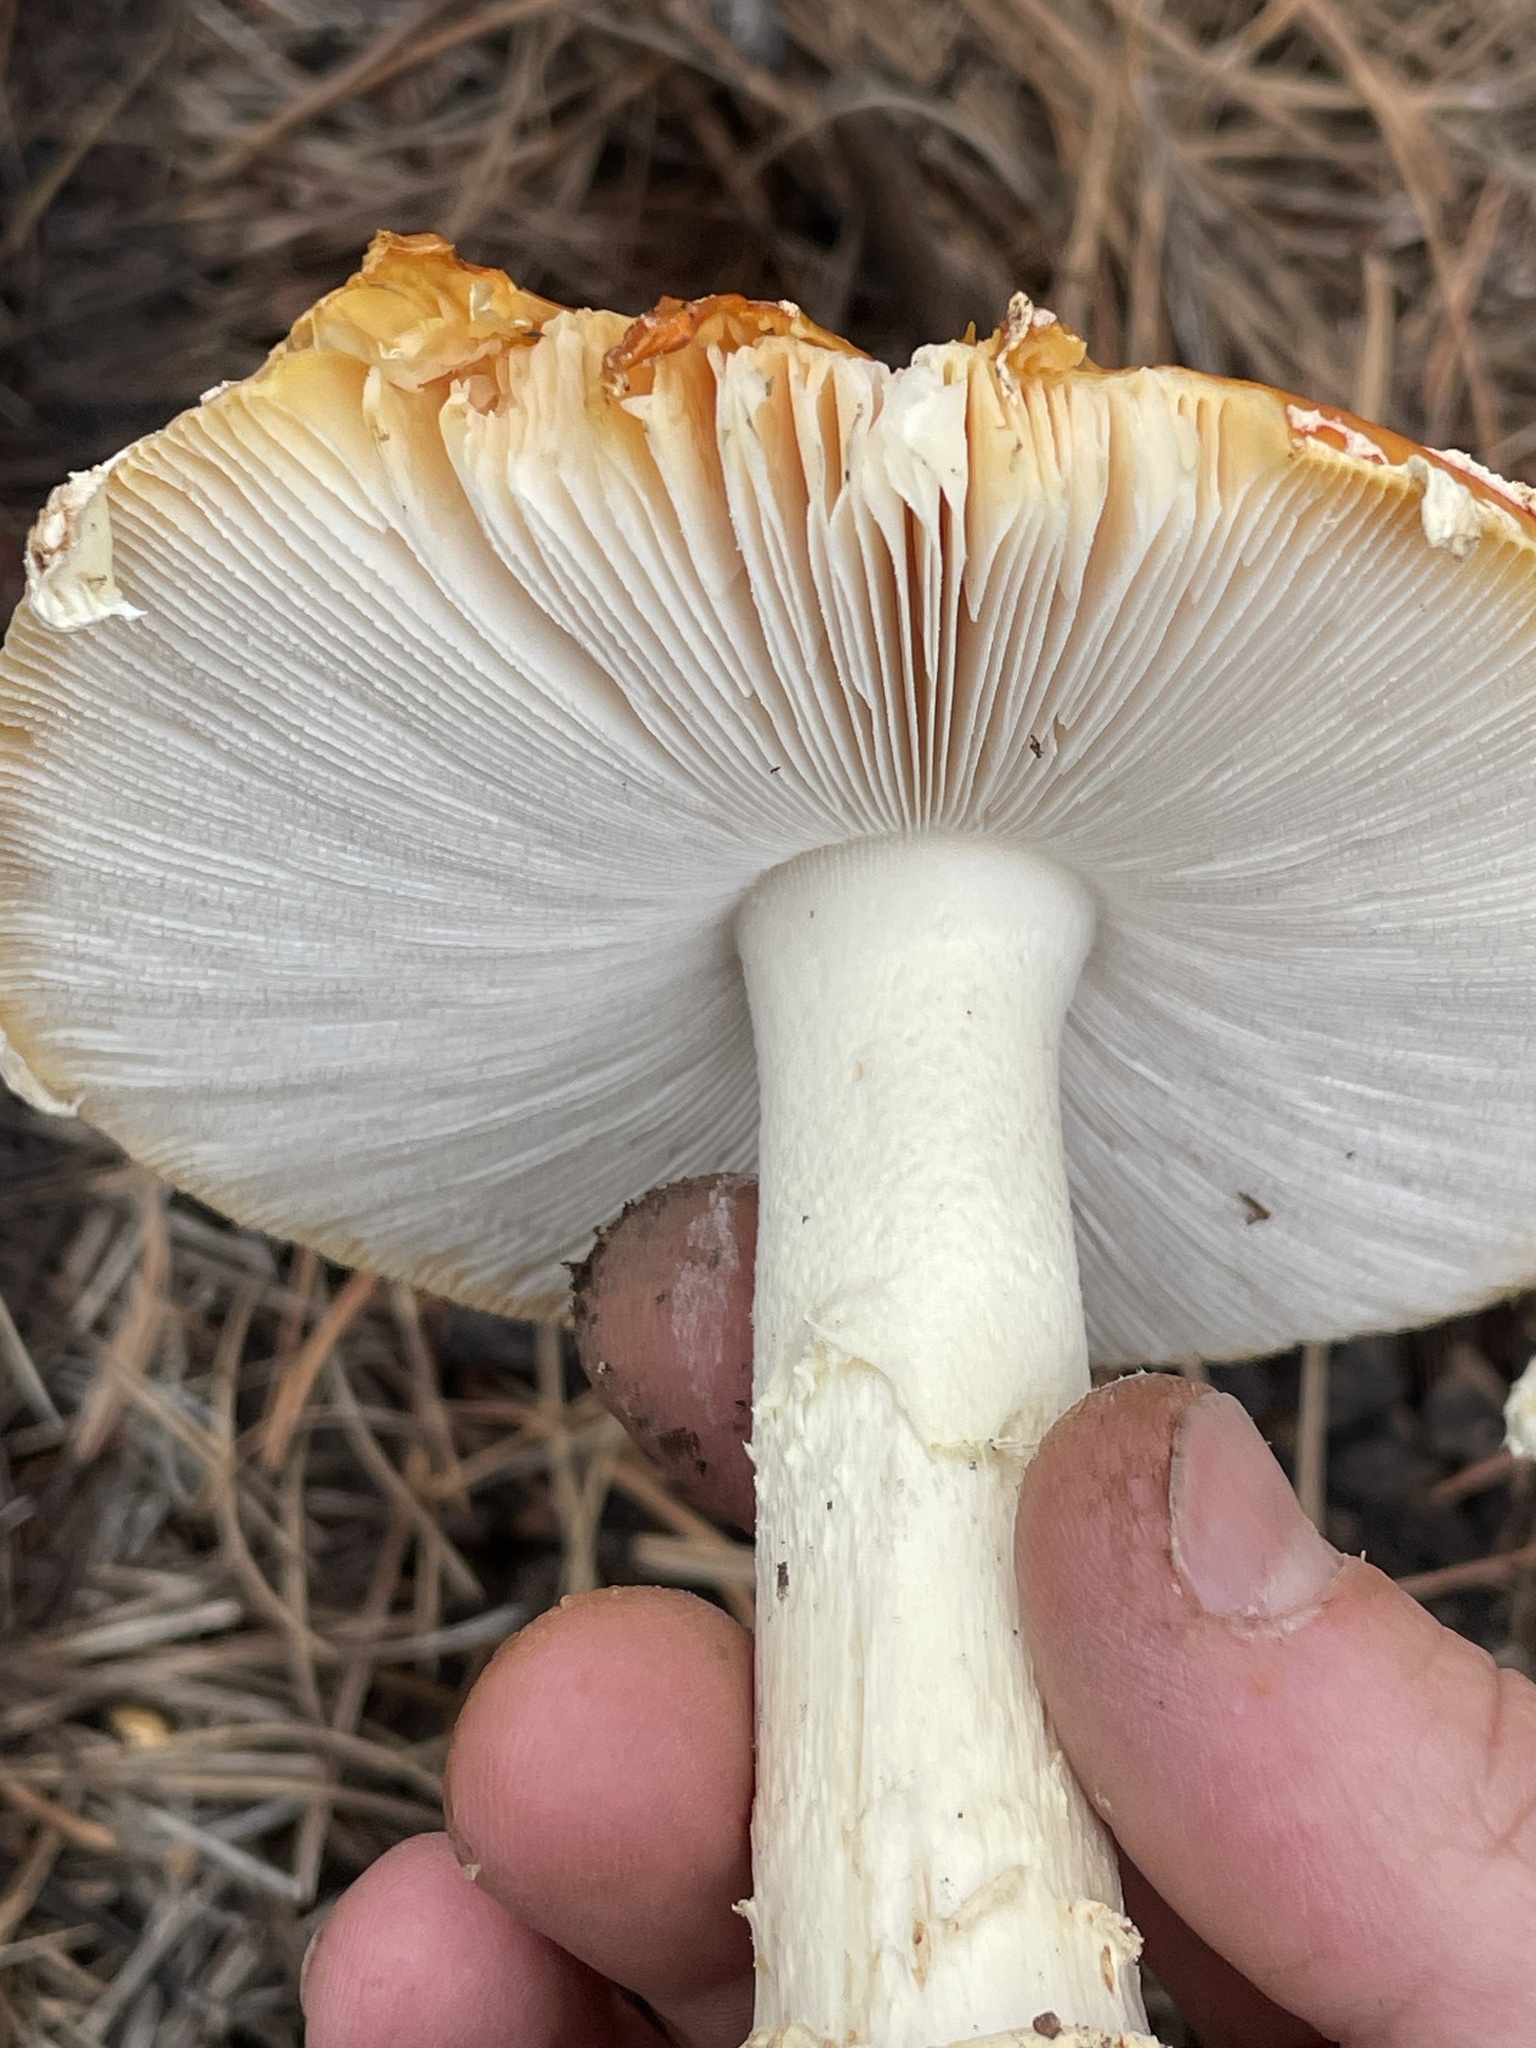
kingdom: Fungi
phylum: Basidiomycota
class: Agaricomycetes
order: Agaricales
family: Amanitaceae
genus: Amanita
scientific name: Amanita muscaria
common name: Fly agaric
